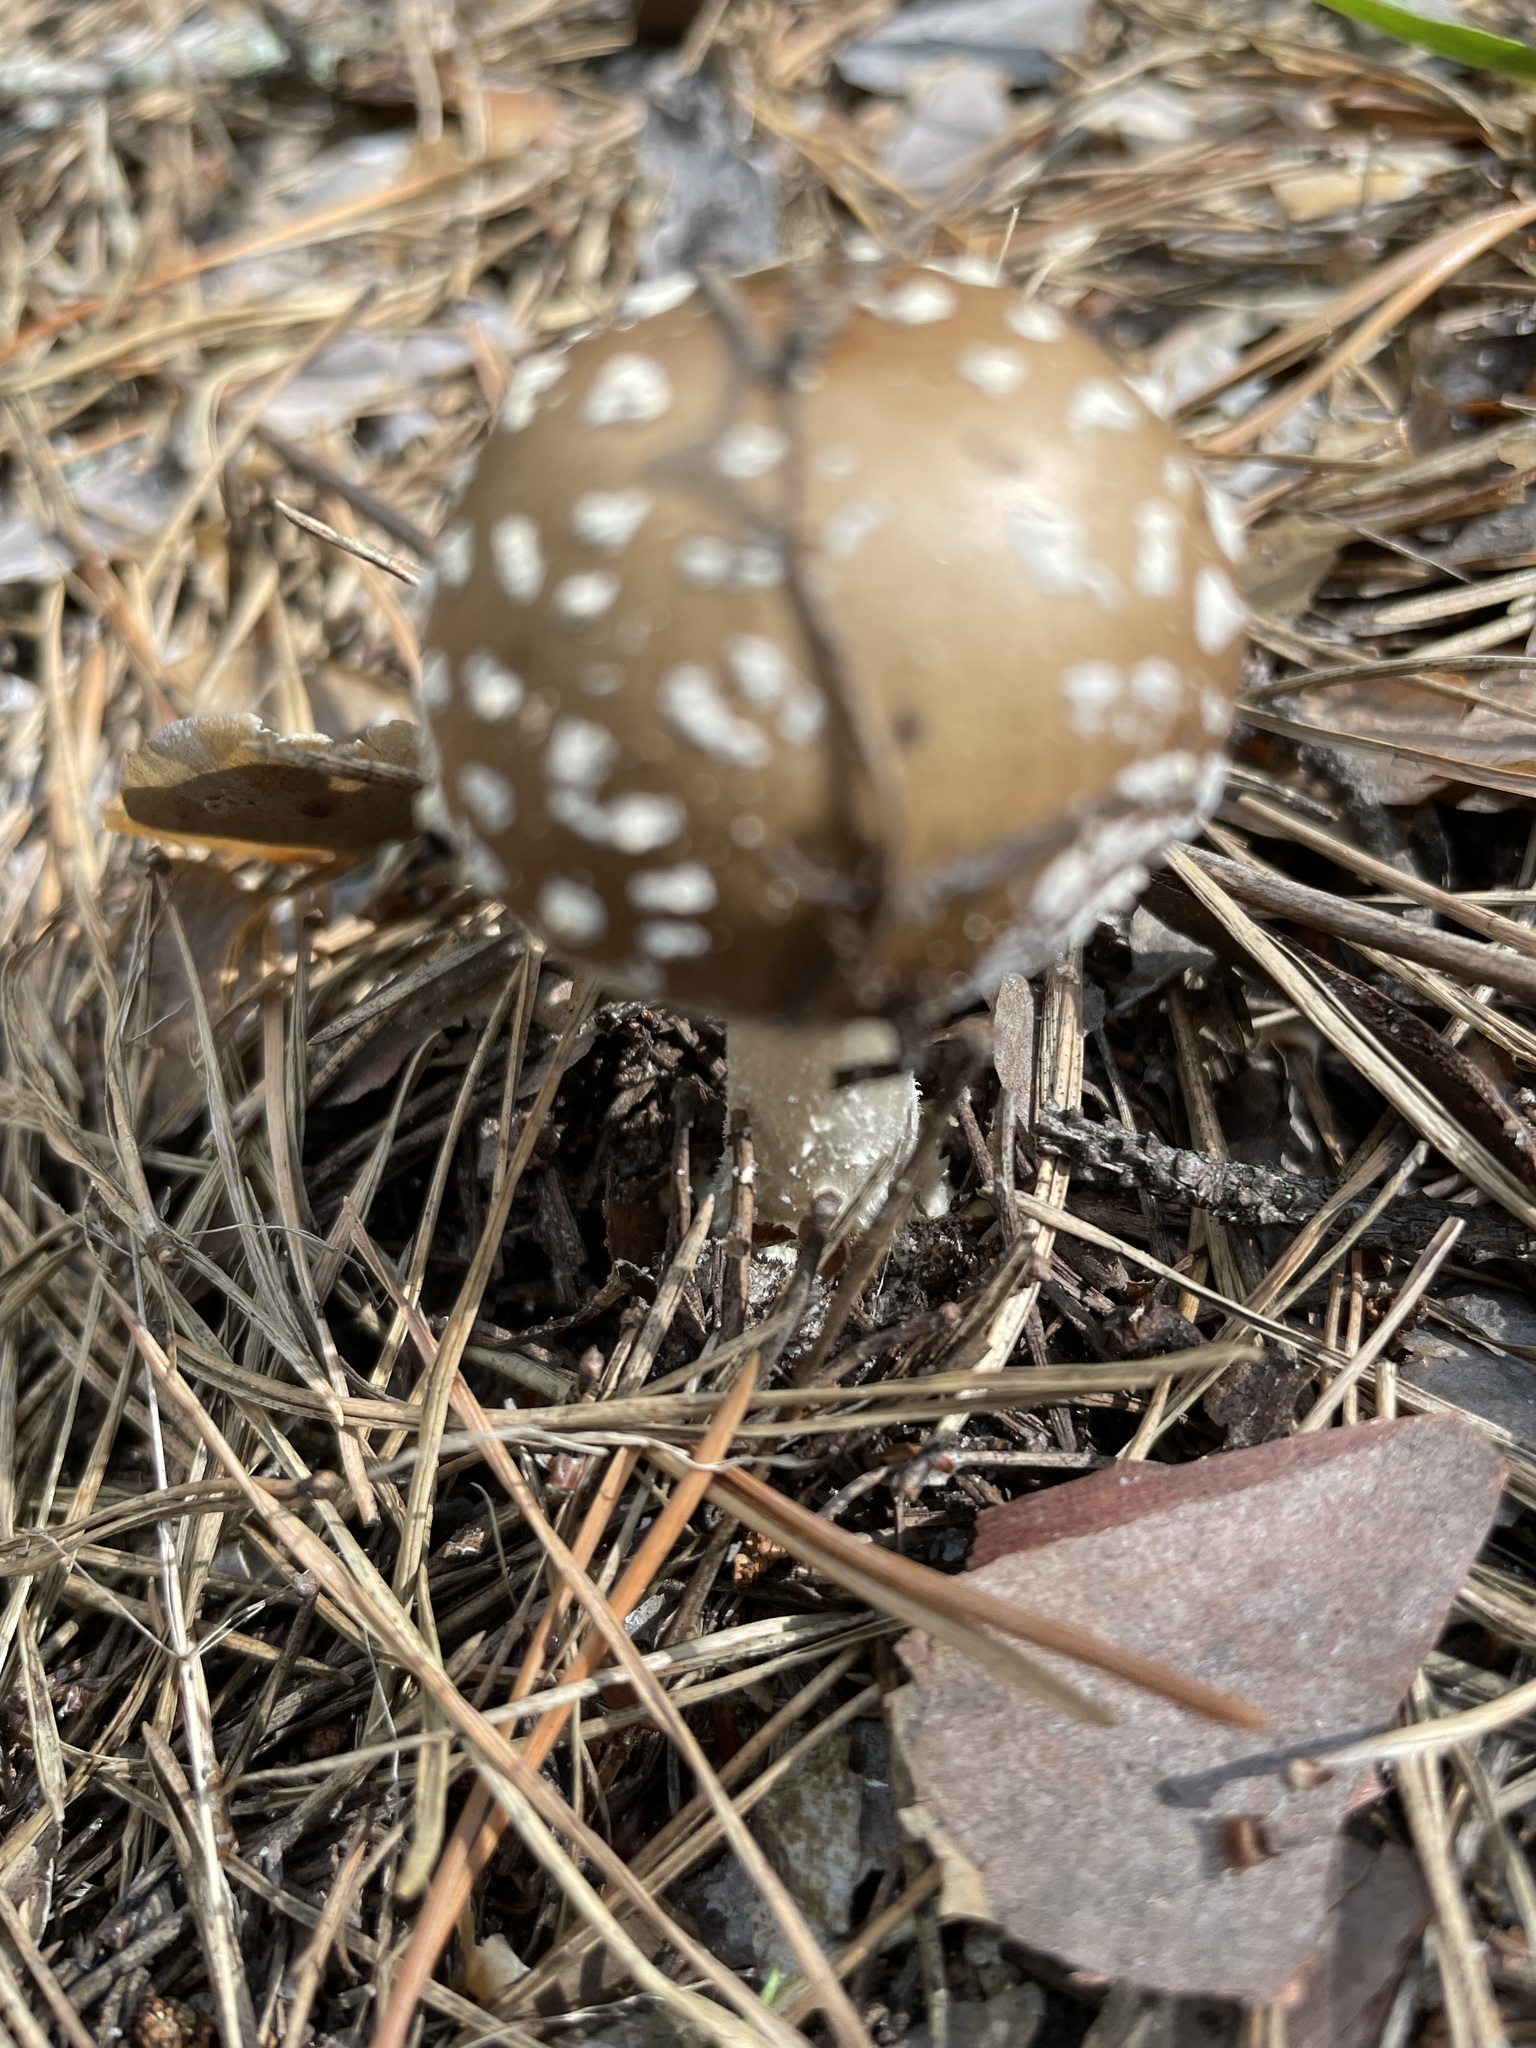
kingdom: Fungi
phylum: Basidiomycota
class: Agaricomycetes
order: Agaricales
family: Amanitaceae
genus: Amanita
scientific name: Amanita pantherina
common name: Panthercap
